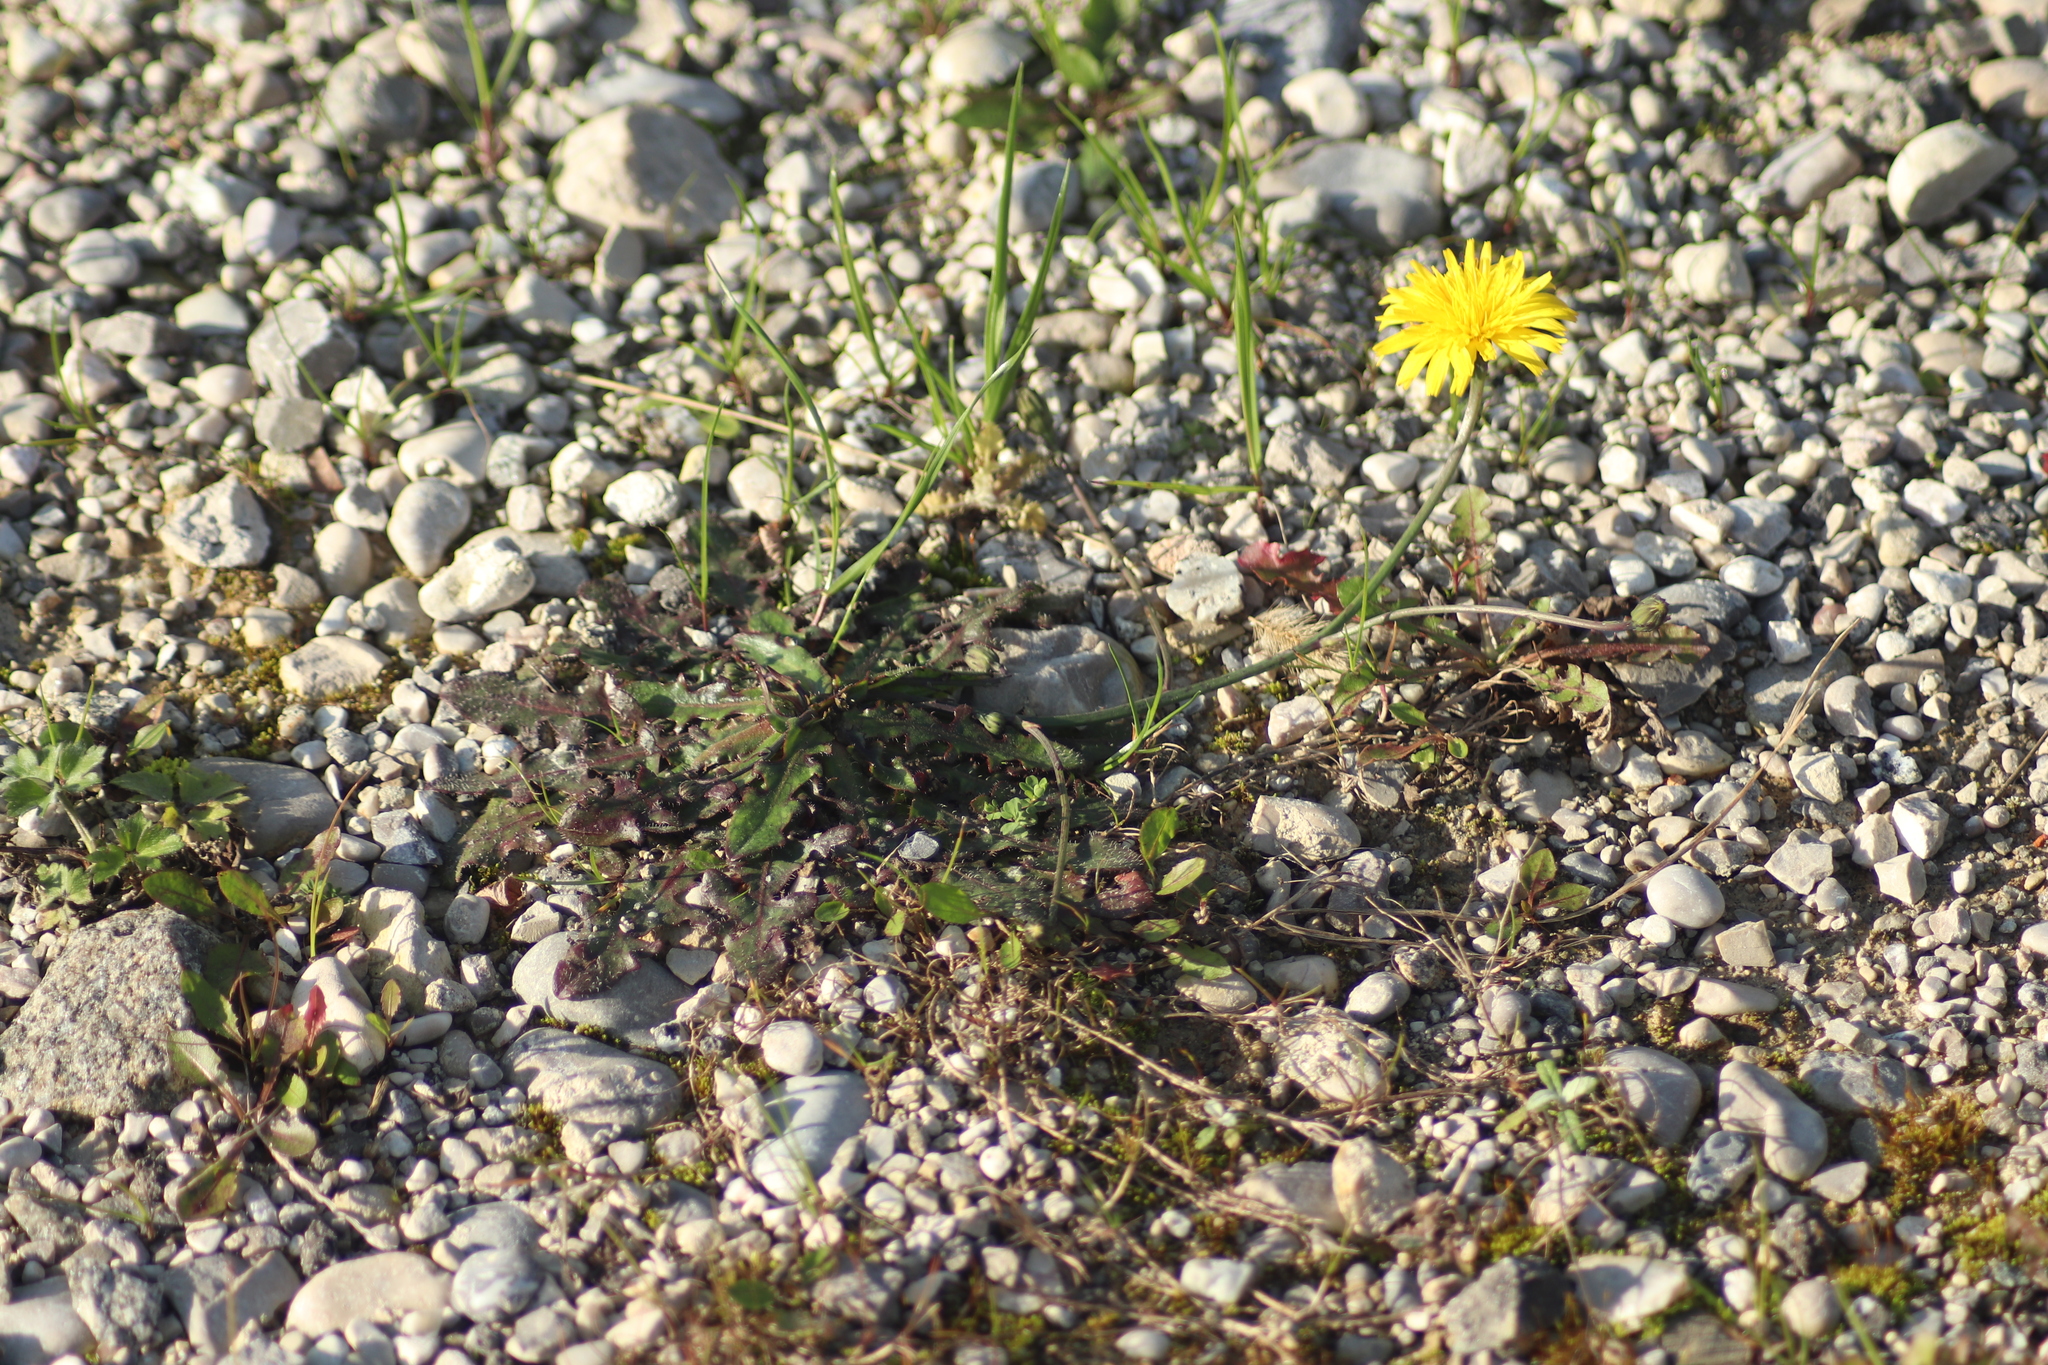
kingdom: Plantae
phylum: Tracheophyta
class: Magnoliopsida
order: Asterales
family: Asteraceae
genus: Hypochaeris
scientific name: Hypochaeris radicata
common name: Flatweed
